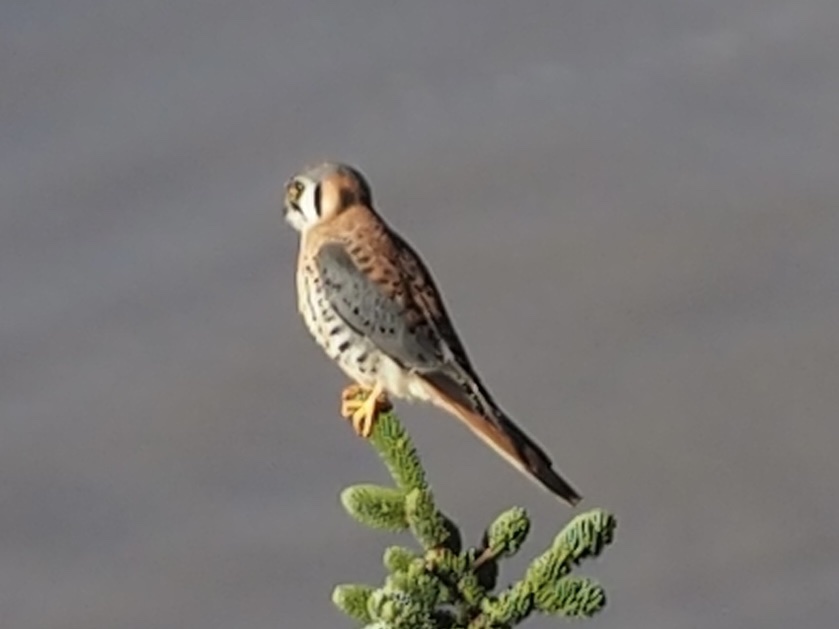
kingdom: Animalia
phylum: Chordata
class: Aves
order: Falconiformes
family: Falconidae
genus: Falco
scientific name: Falco sparverius
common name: American kestrel
